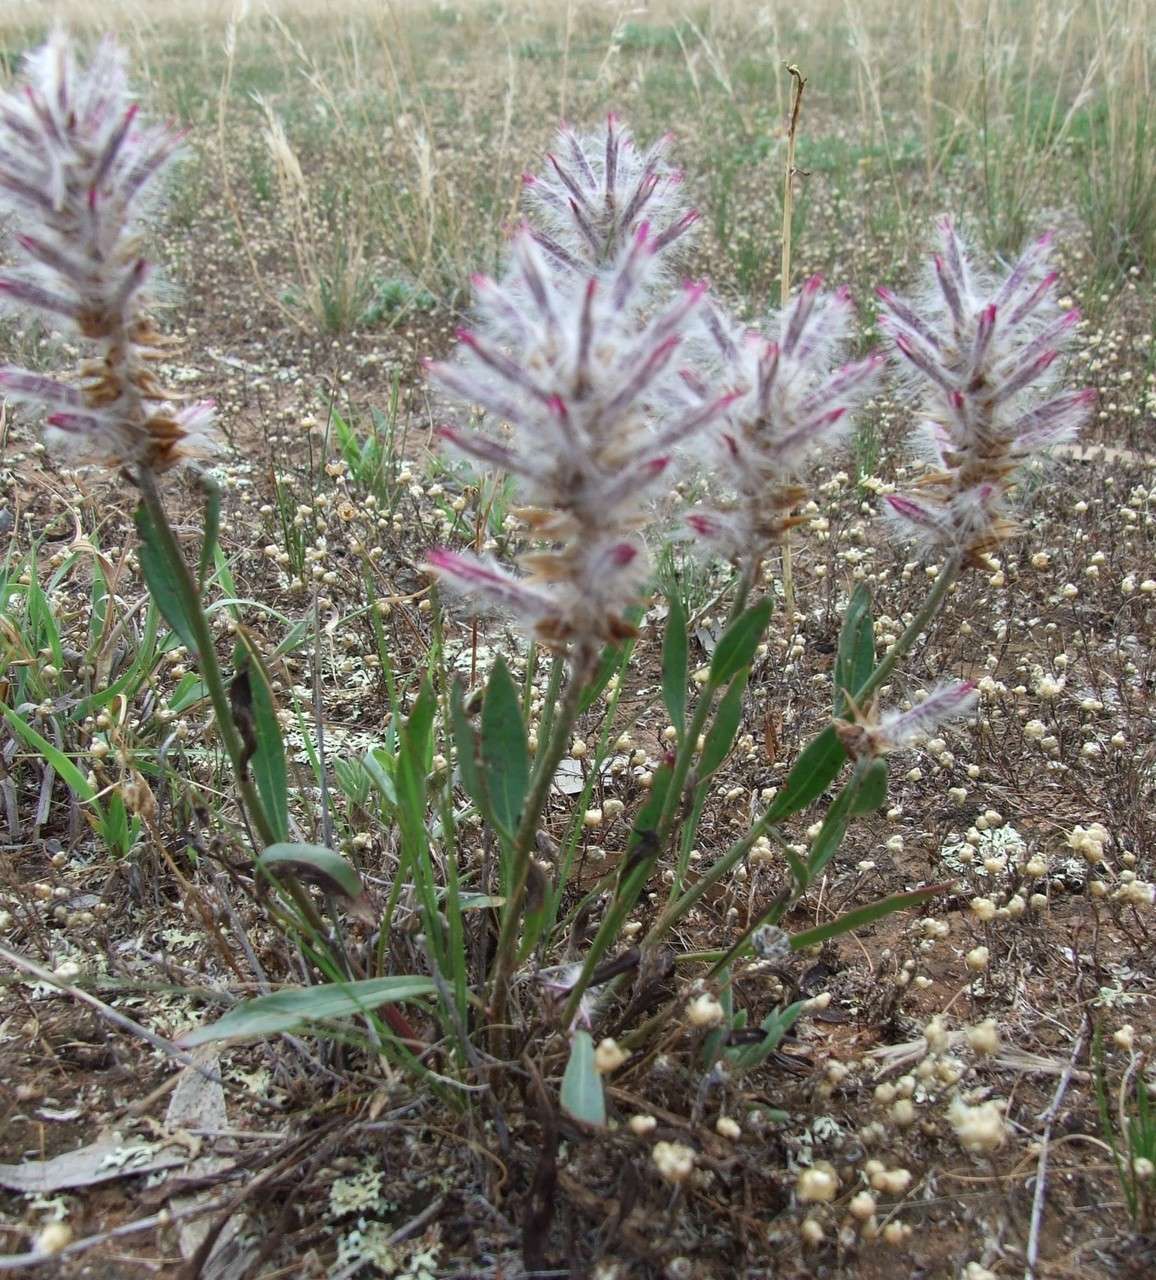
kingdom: Plantae
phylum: Tracheophyta
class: Magnoliopsida
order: Caryophyllales
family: Amaranthaceae
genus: Ptilotus
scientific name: Ptilotus semilanatus
